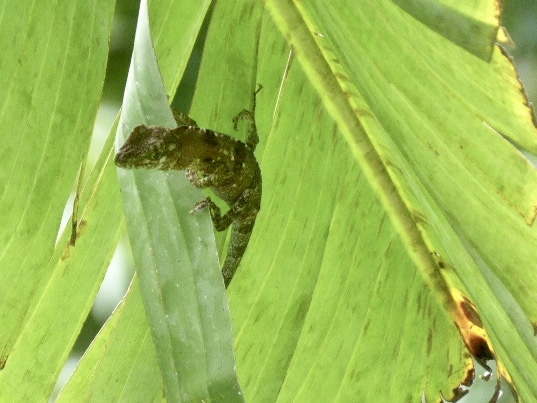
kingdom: Animalia
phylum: Chordata
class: Squamata
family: Dactyloidae
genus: Anolis
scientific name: Anolis fraseri
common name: Fraser's anole
